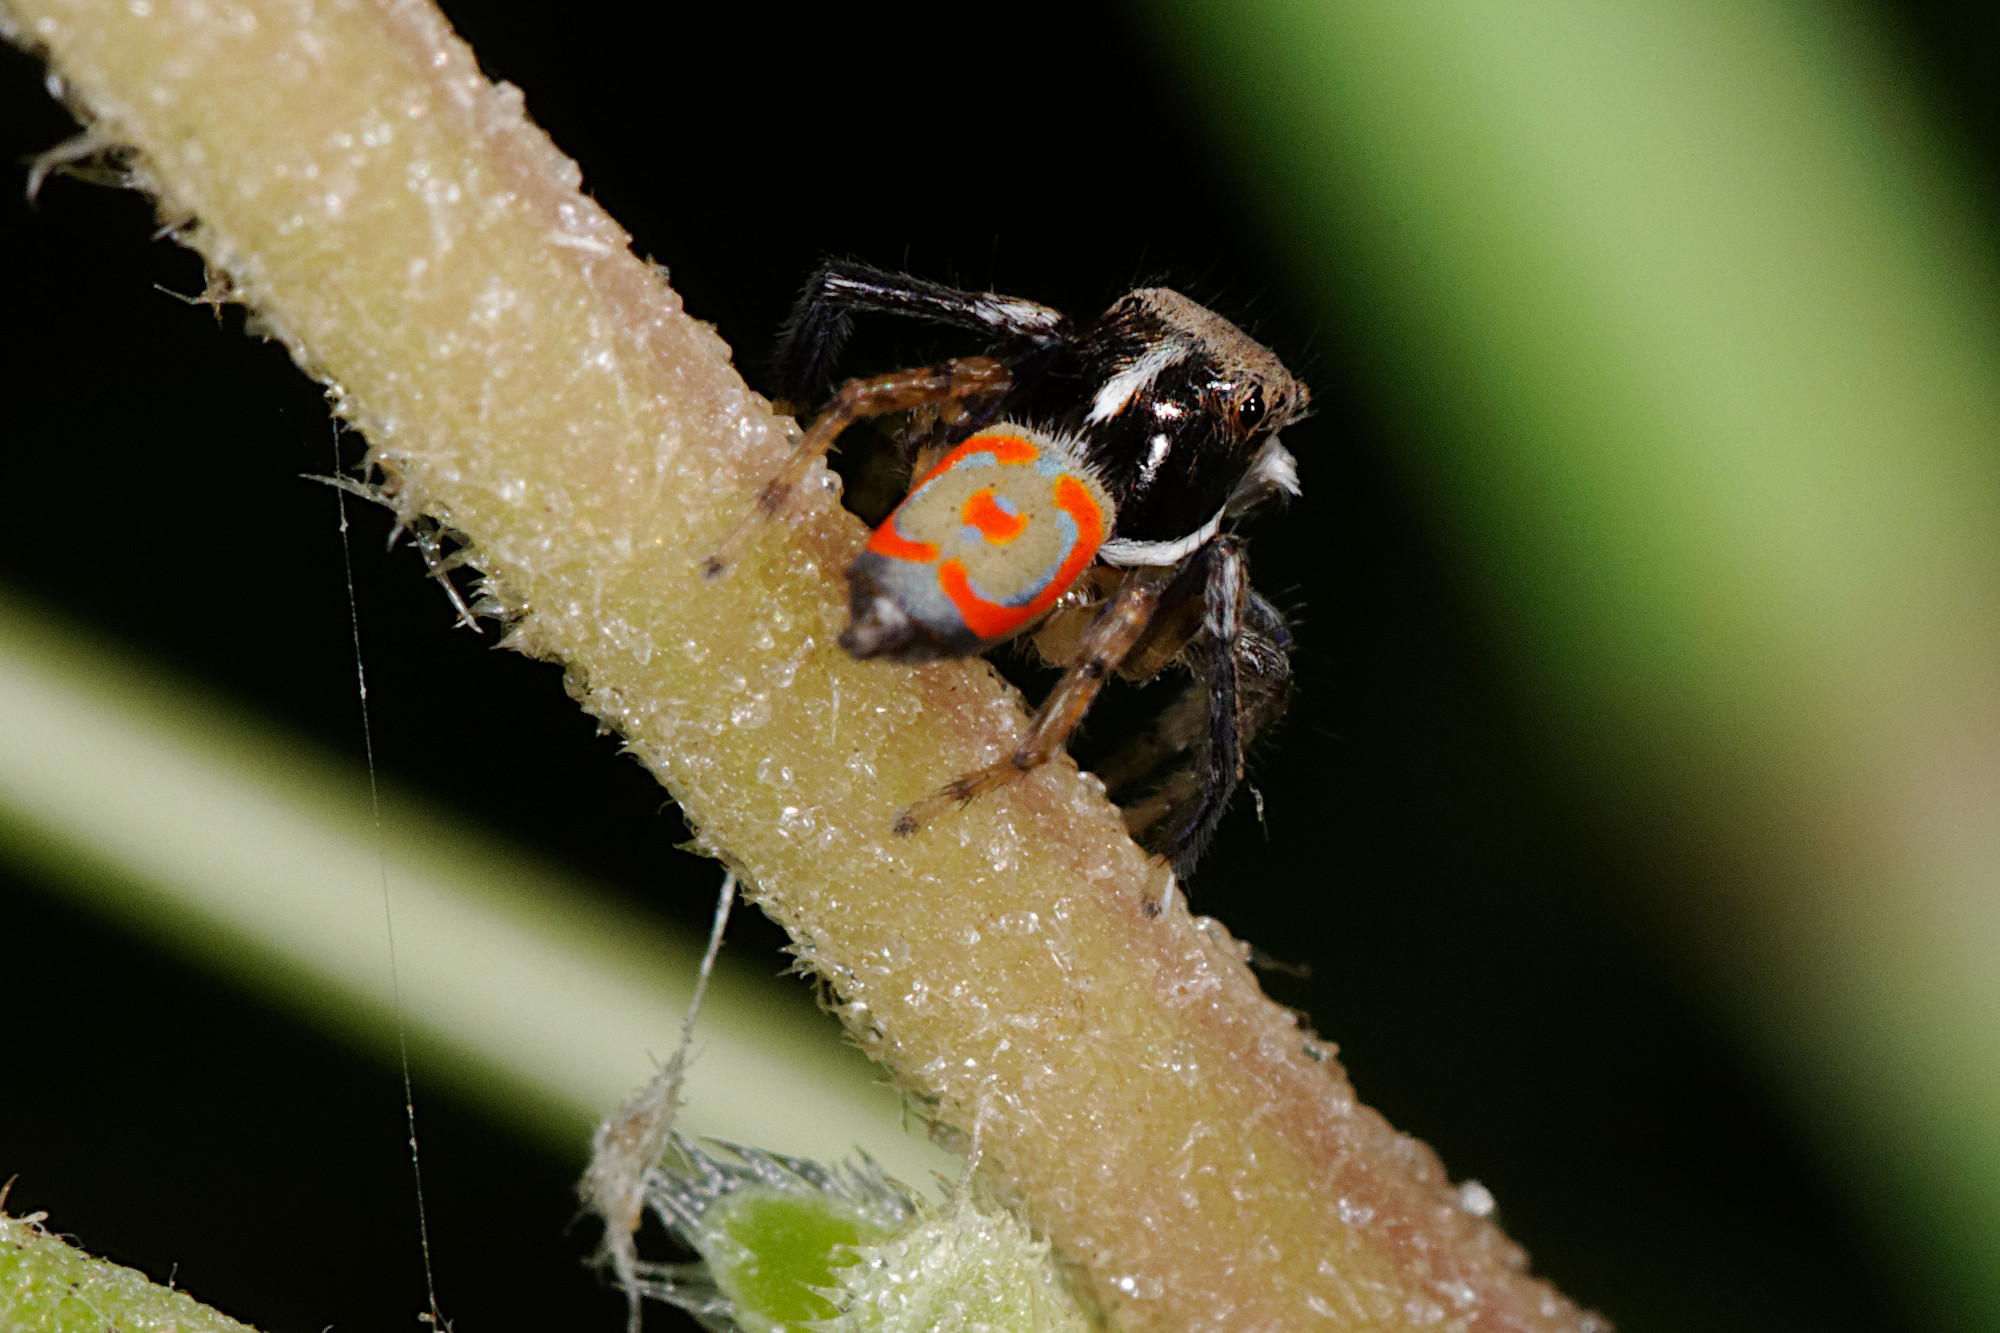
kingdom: Animalia
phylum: Arthropoda
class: Arachnida
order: Araneae
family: Salticidae
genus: Maratus
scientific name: Maratus pavonis
